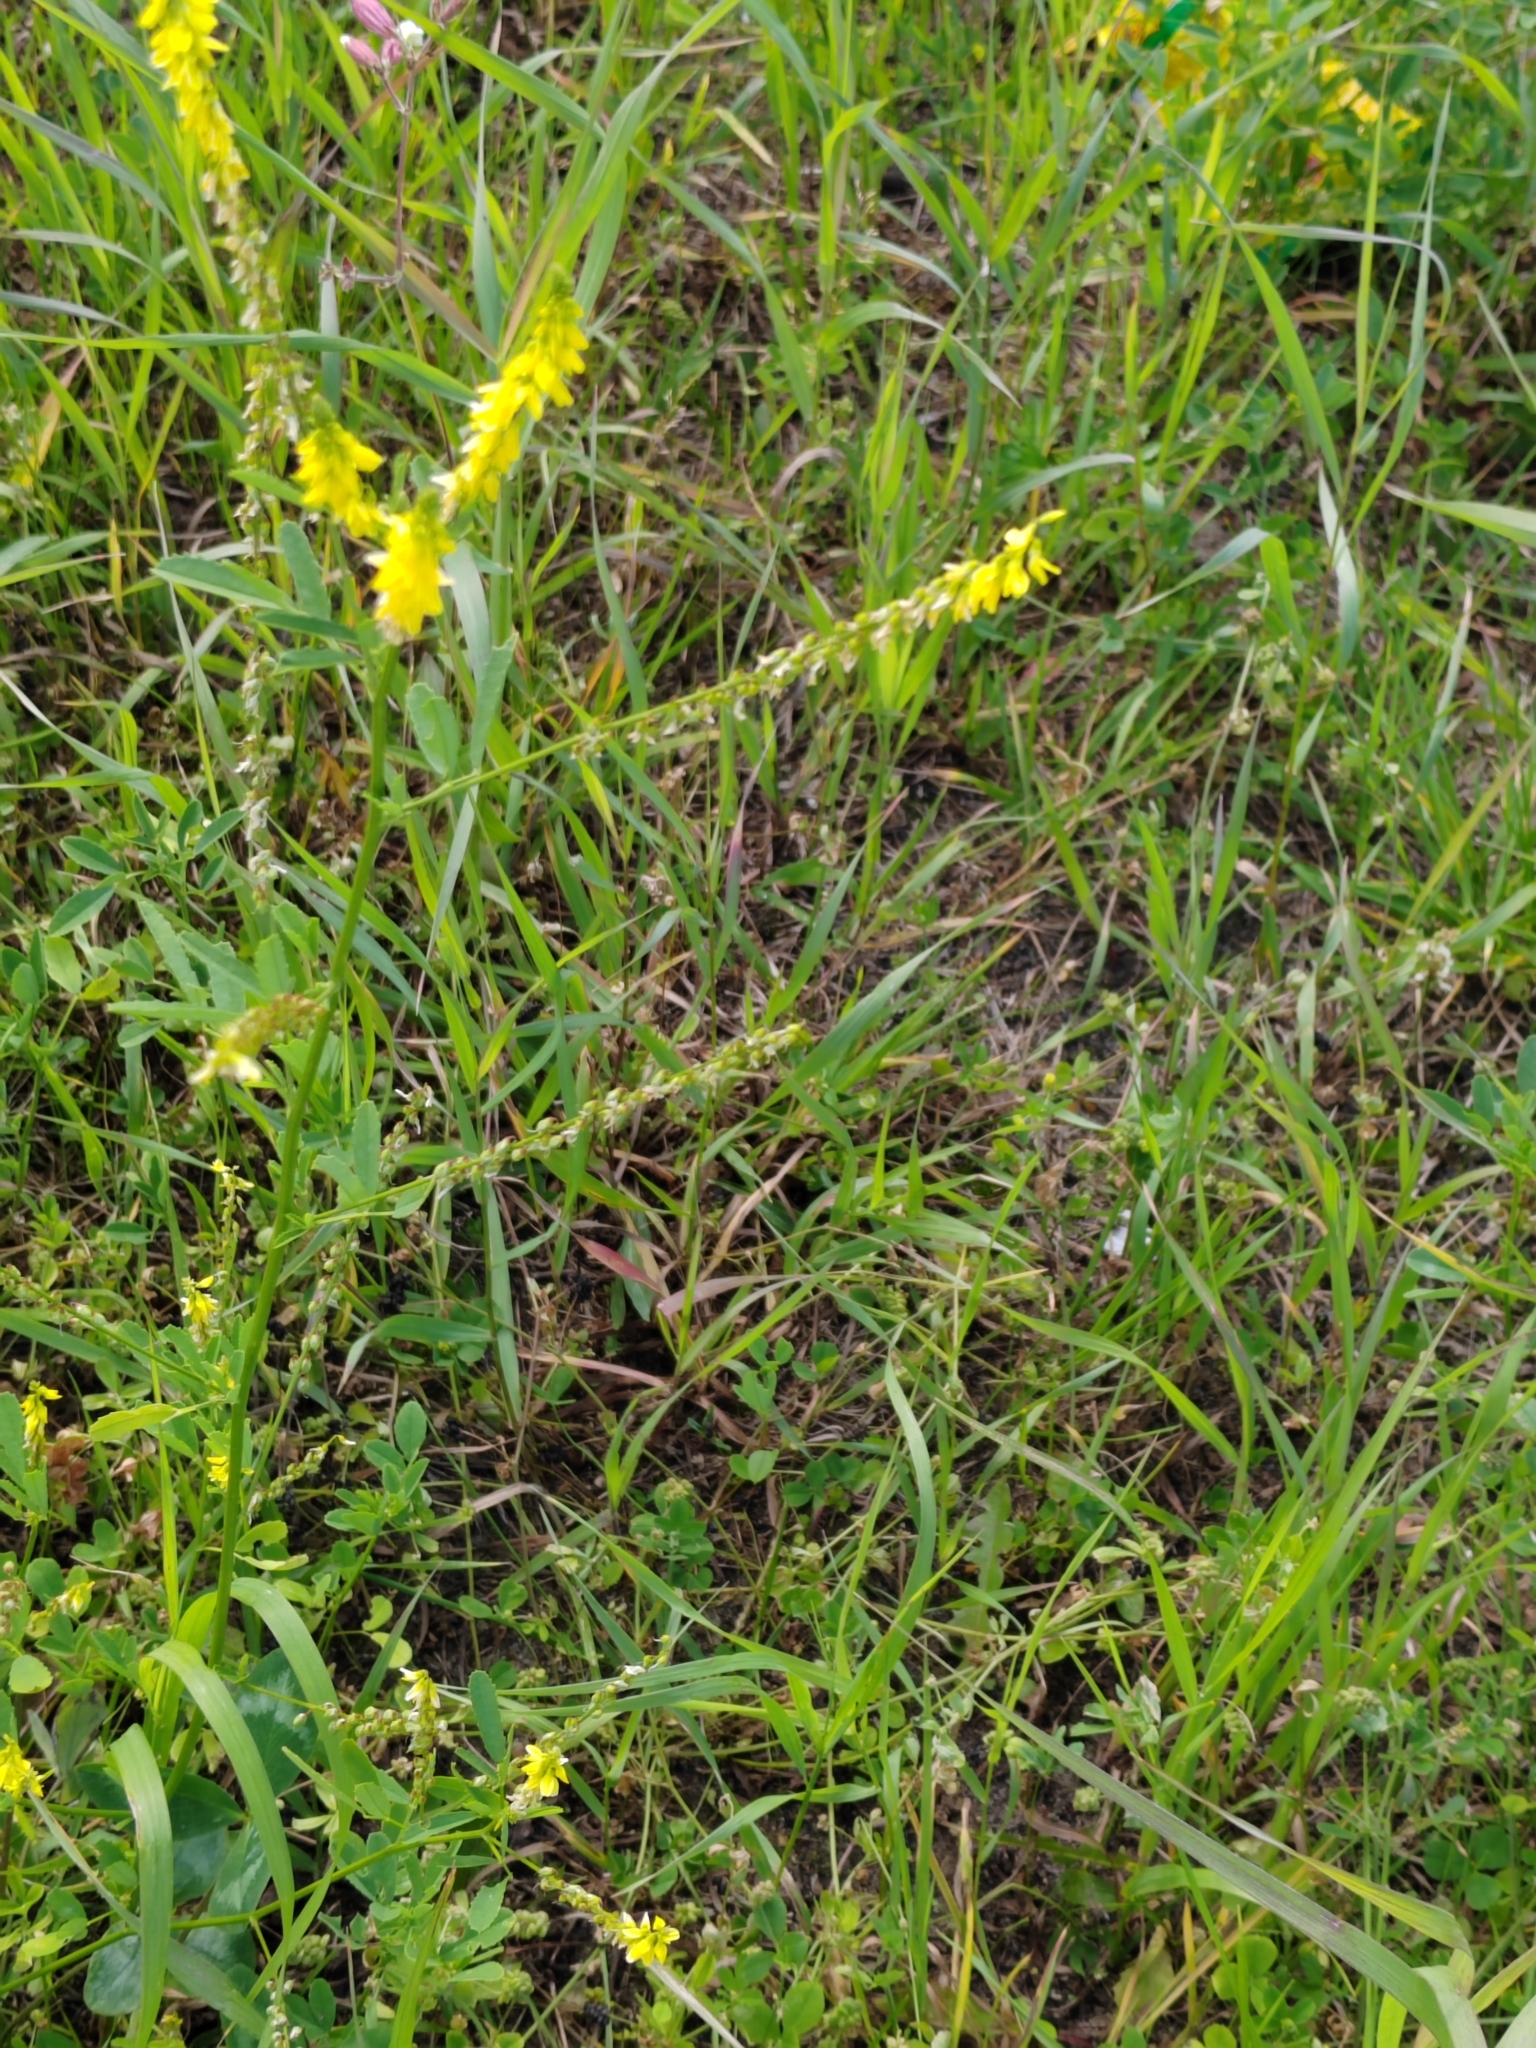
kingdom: Plantae
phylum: Tracheophyta
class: Magnoliopsida
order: Fabales
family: Fabaceae
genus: Melilotus
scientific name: Melilotus officinalis
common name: Sweetclover
